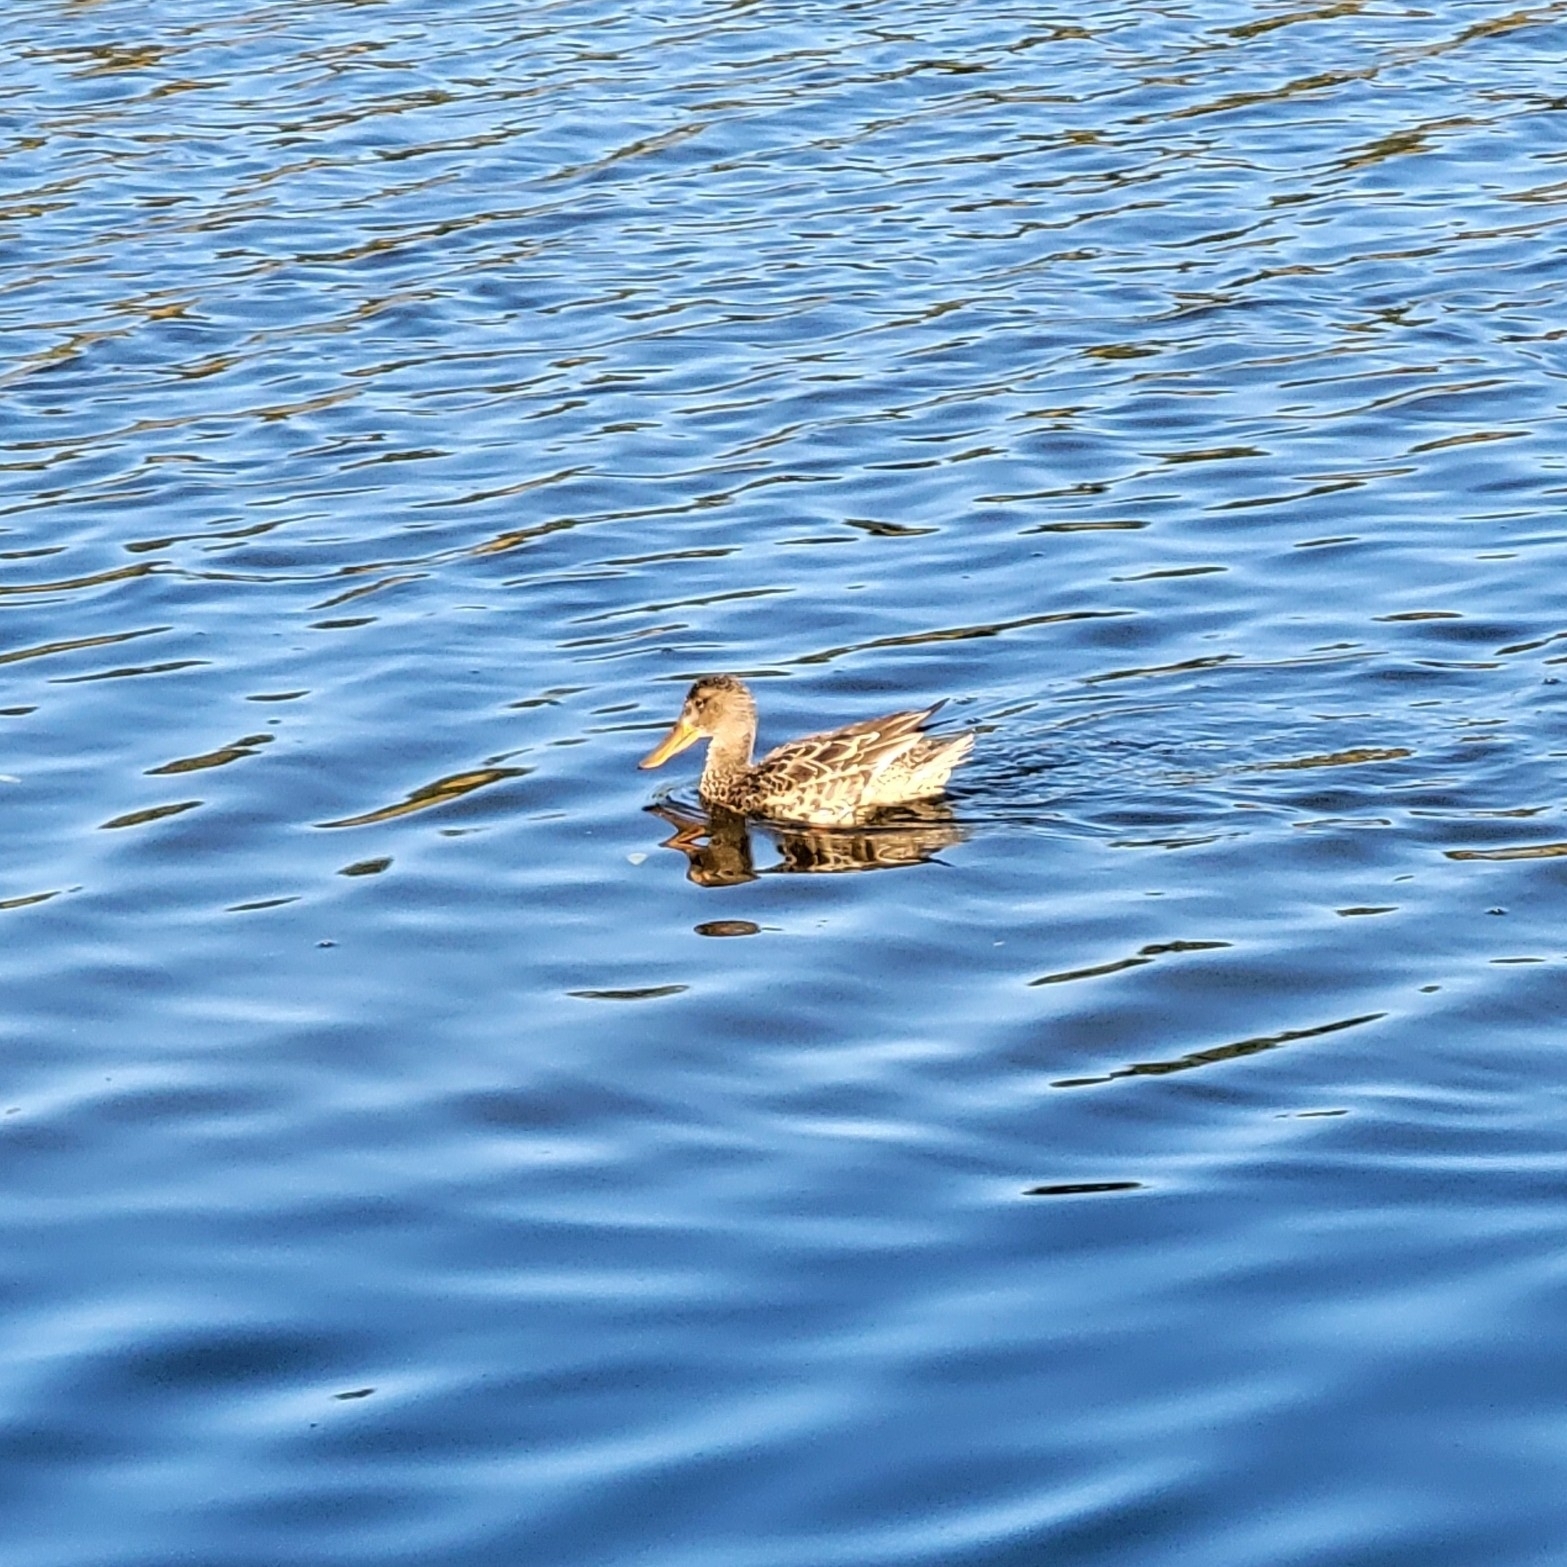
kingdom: Animalia
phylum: Chordata
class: Aves
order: Anseriformes
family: Anatidae
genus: Spatula
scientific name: Spatula clypeata
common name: Northern shoveler
